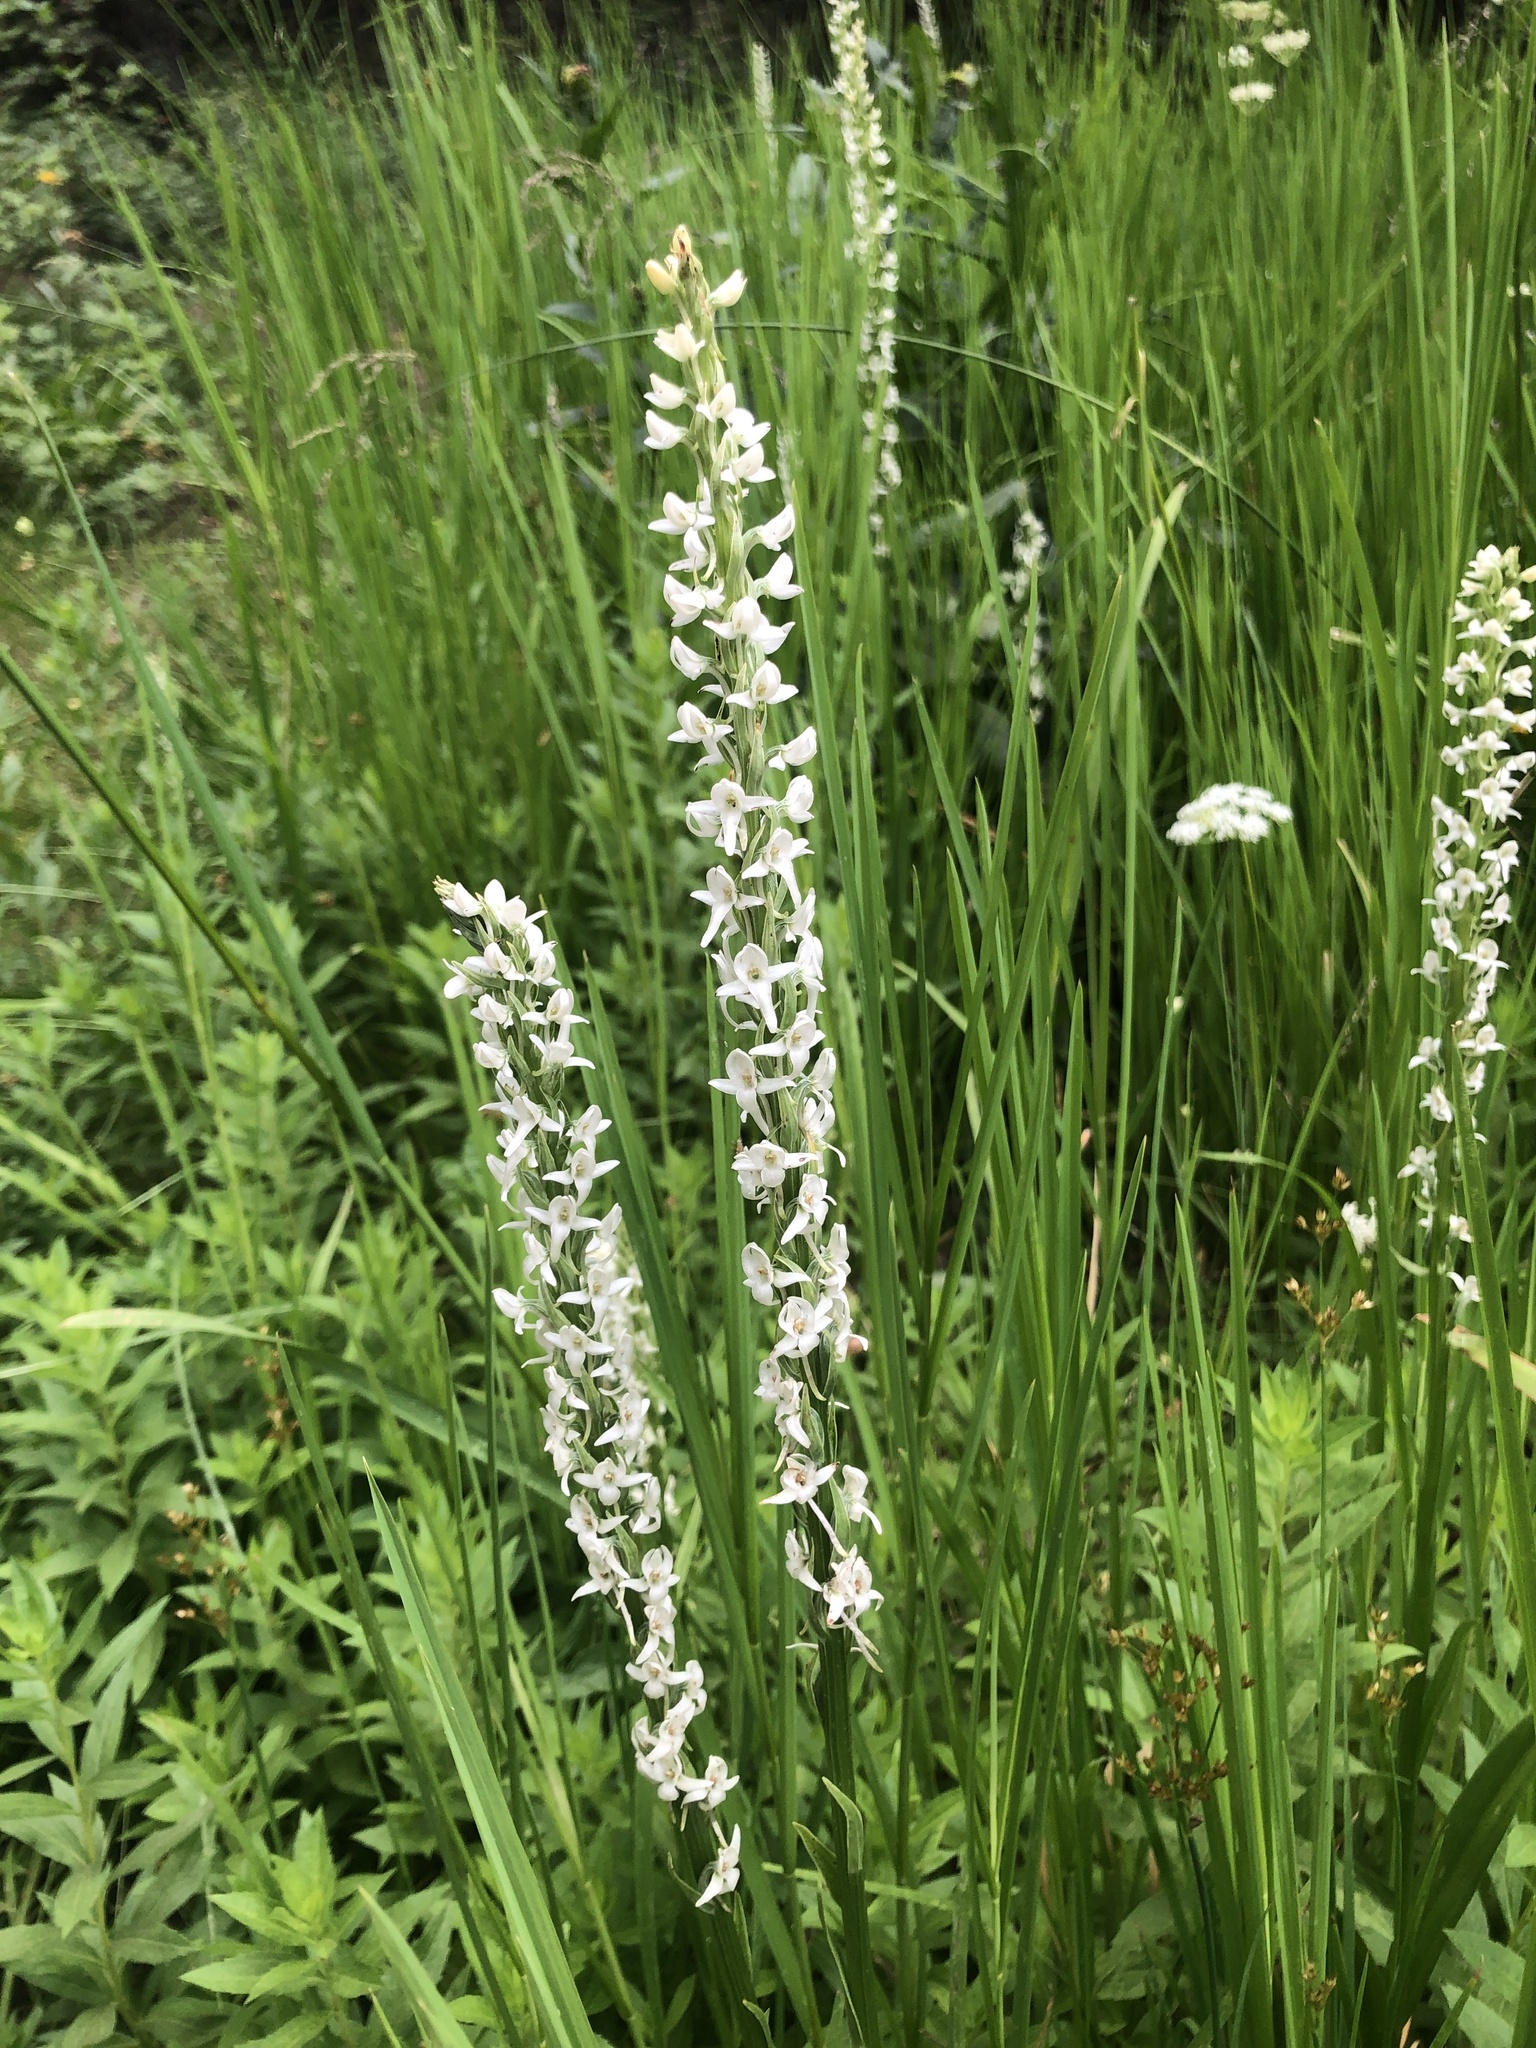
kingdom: Plantae
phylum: Tracheophyta
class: Liliopsida
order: Asparagales
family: Orchidaceae
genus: Platanthera
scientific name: Platanthera dilatata
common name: Bog candles
